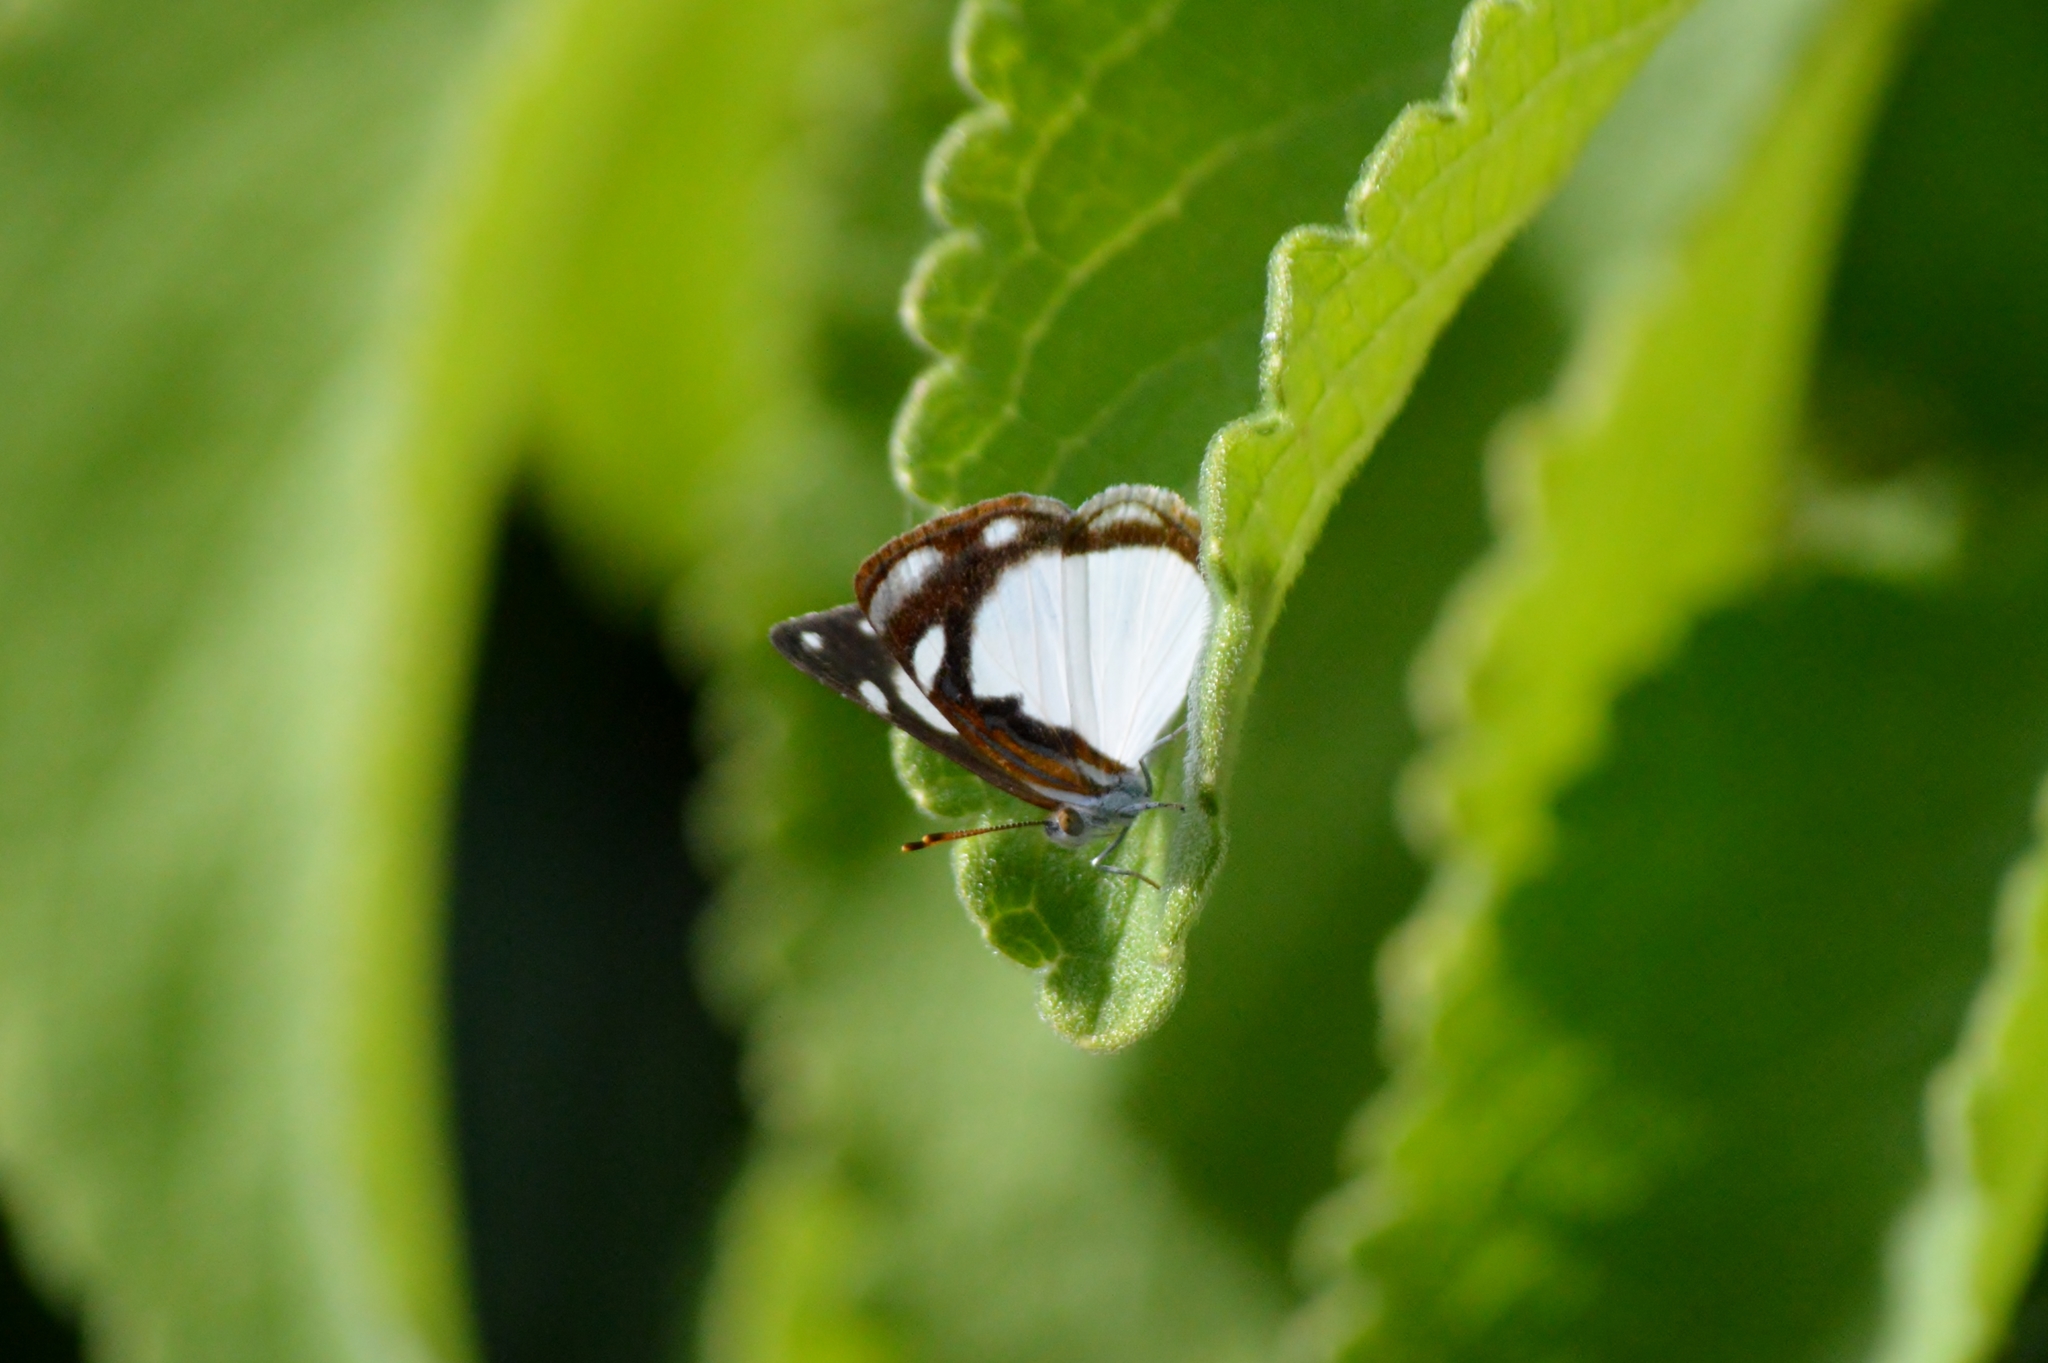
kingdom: Animalia
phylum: Arthropoda
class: Insecta
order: Lepidoptera
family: Nymphalidae
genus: Dynamine
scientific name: Dynamine agacles
